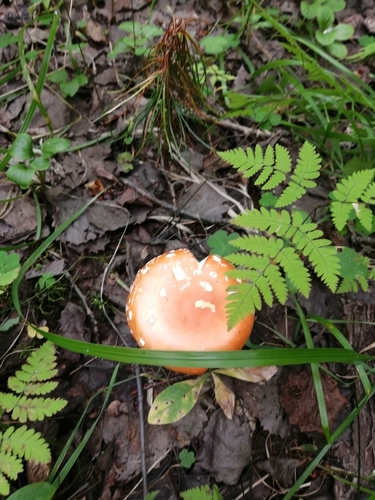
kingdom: Fungi
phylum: Basidiomycota
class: Agaricomycetes
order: Agaricales
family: Amanitaceae
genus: Amanita
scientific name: Amanita muscaria
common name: Fly agaric
